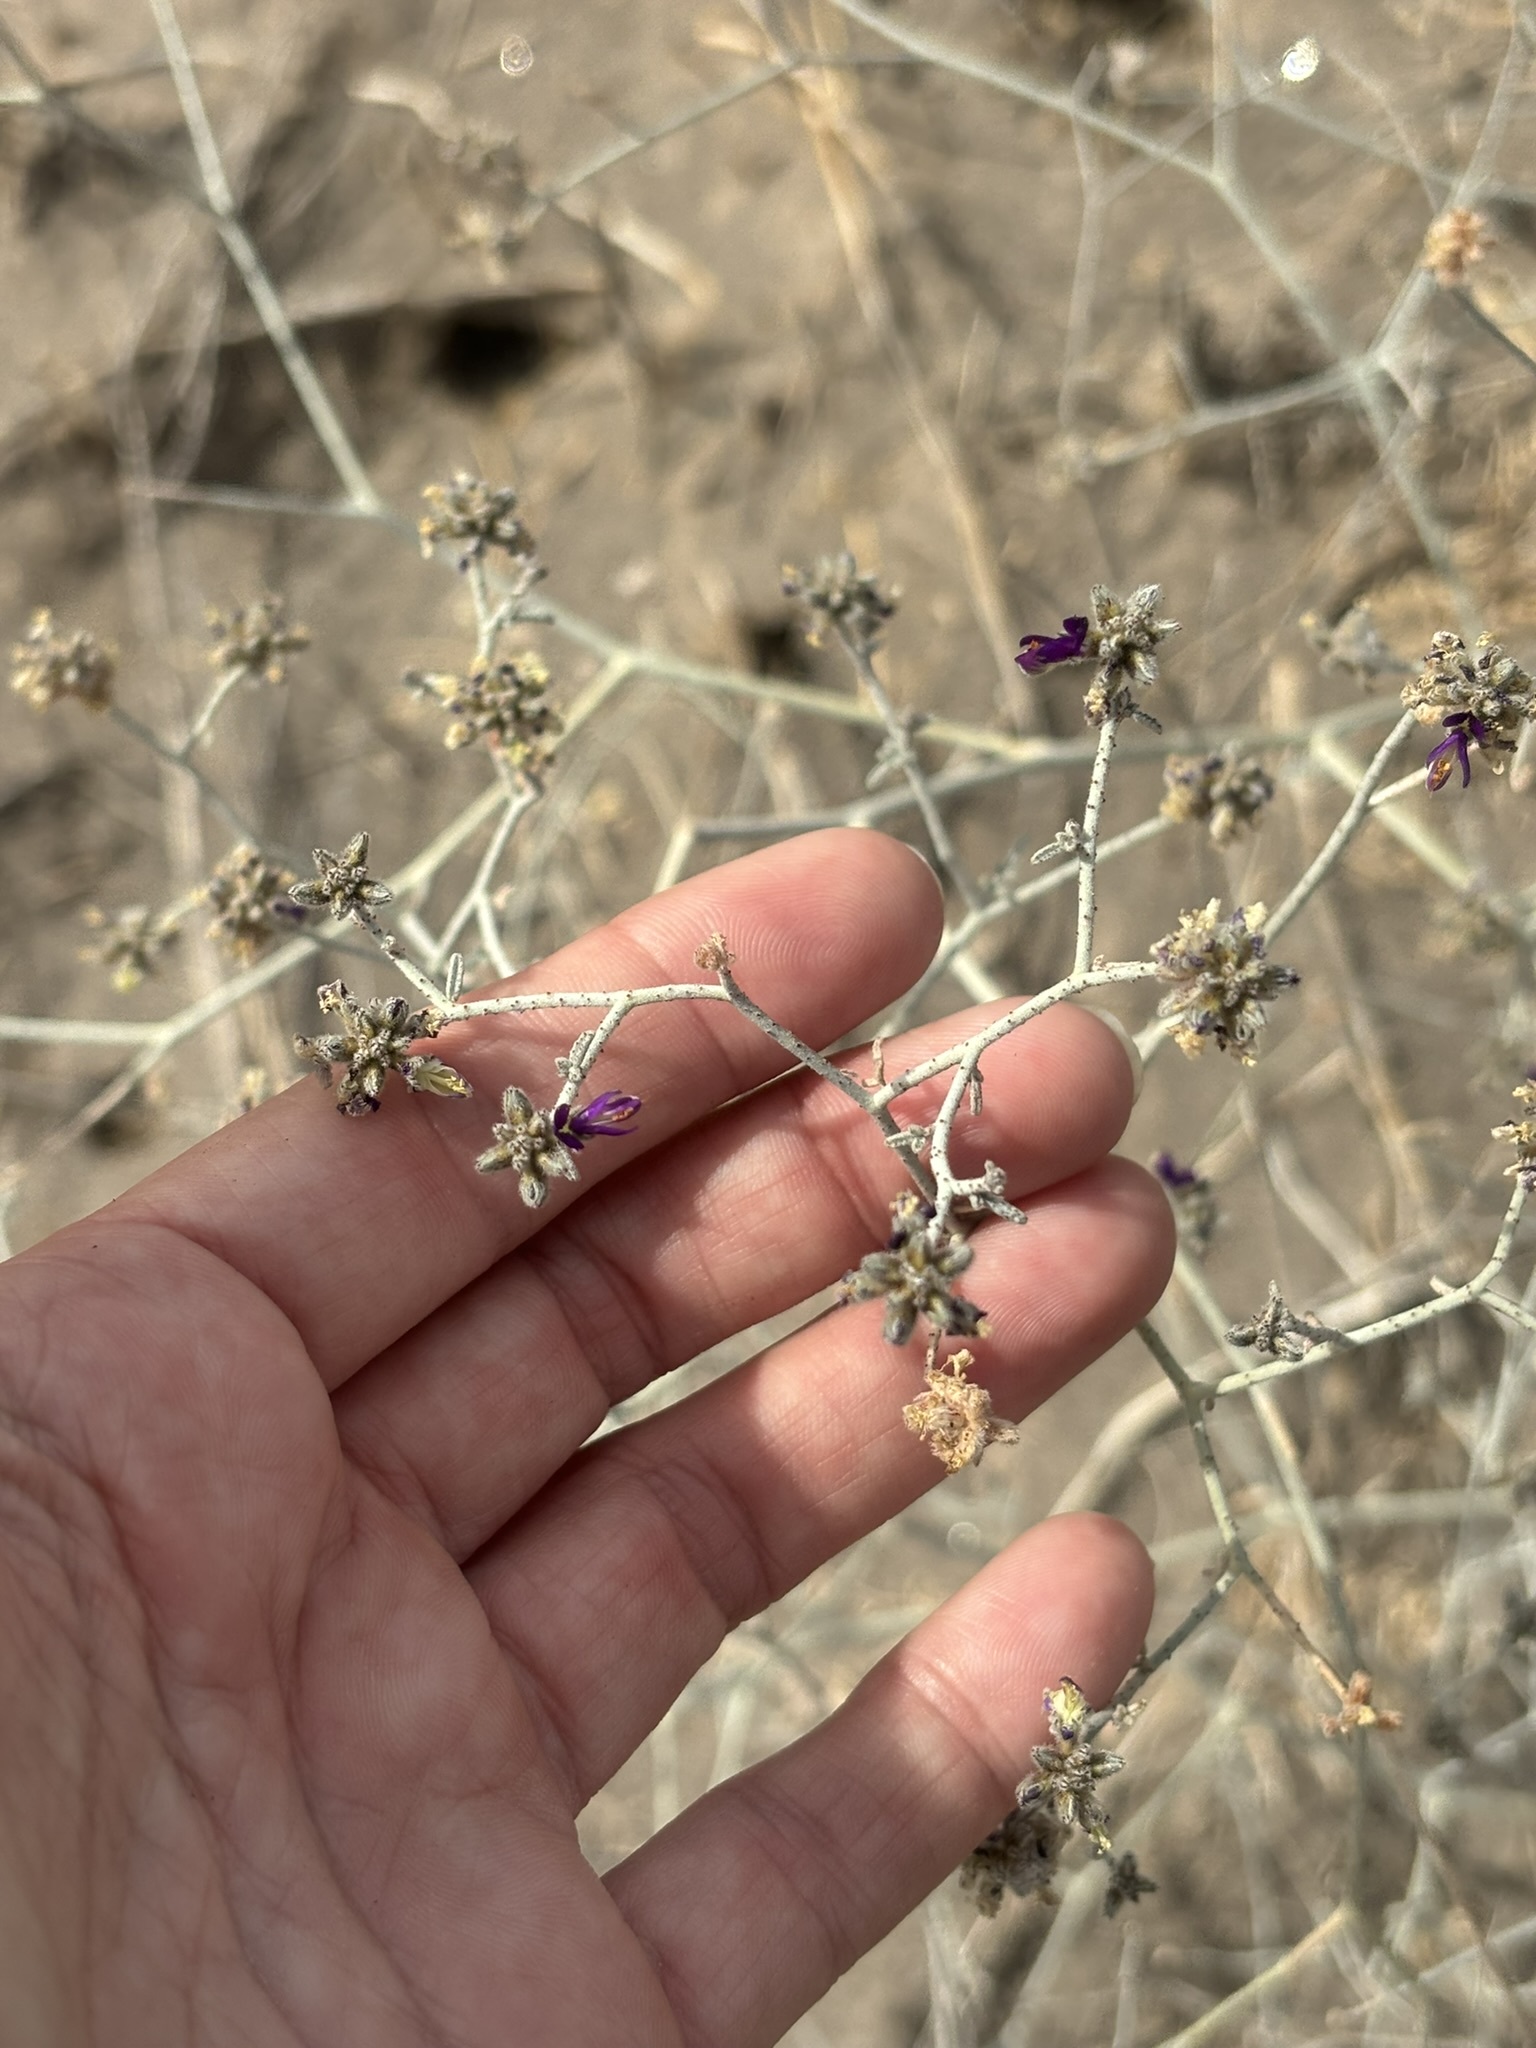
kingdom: Plantae
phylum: Tracheophyta
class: Magnoliopsida
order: Fabales
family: Fabaceae
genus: Psorothamnus
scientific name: Psorothamnus emoryi
